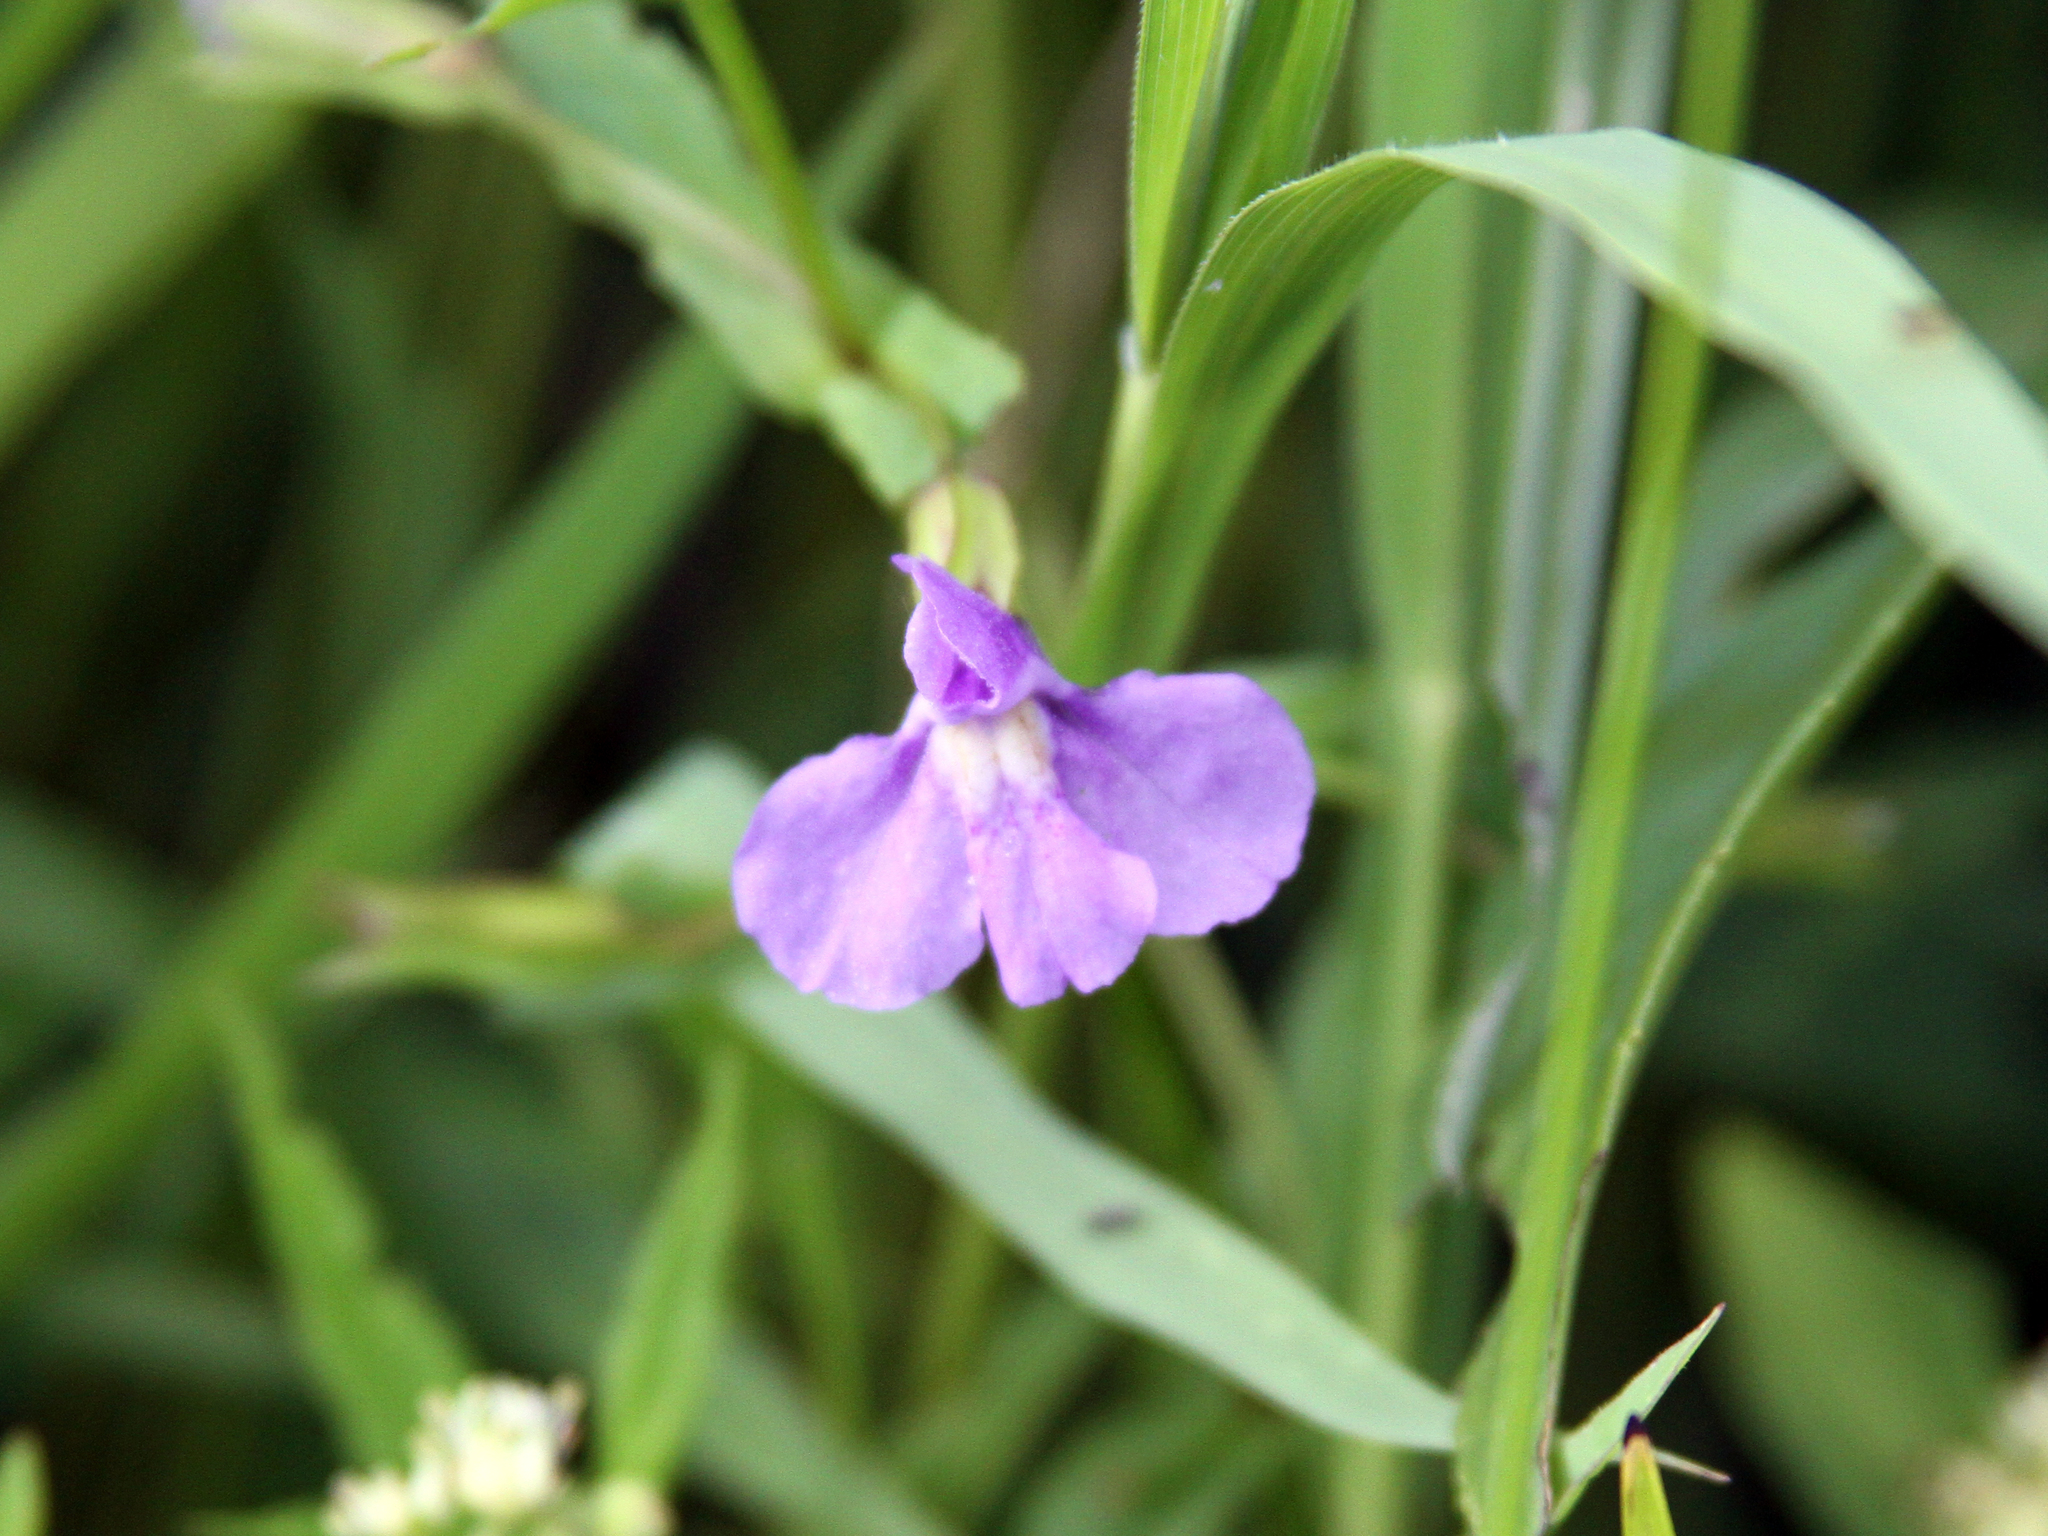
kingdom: Plantae
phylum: Tracheophyta
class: Magnoliopsida
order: Lamiales
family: Phrymaceae
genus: Mimulus
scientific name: Mimulus ringens
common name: Allegheny monkeyflower
